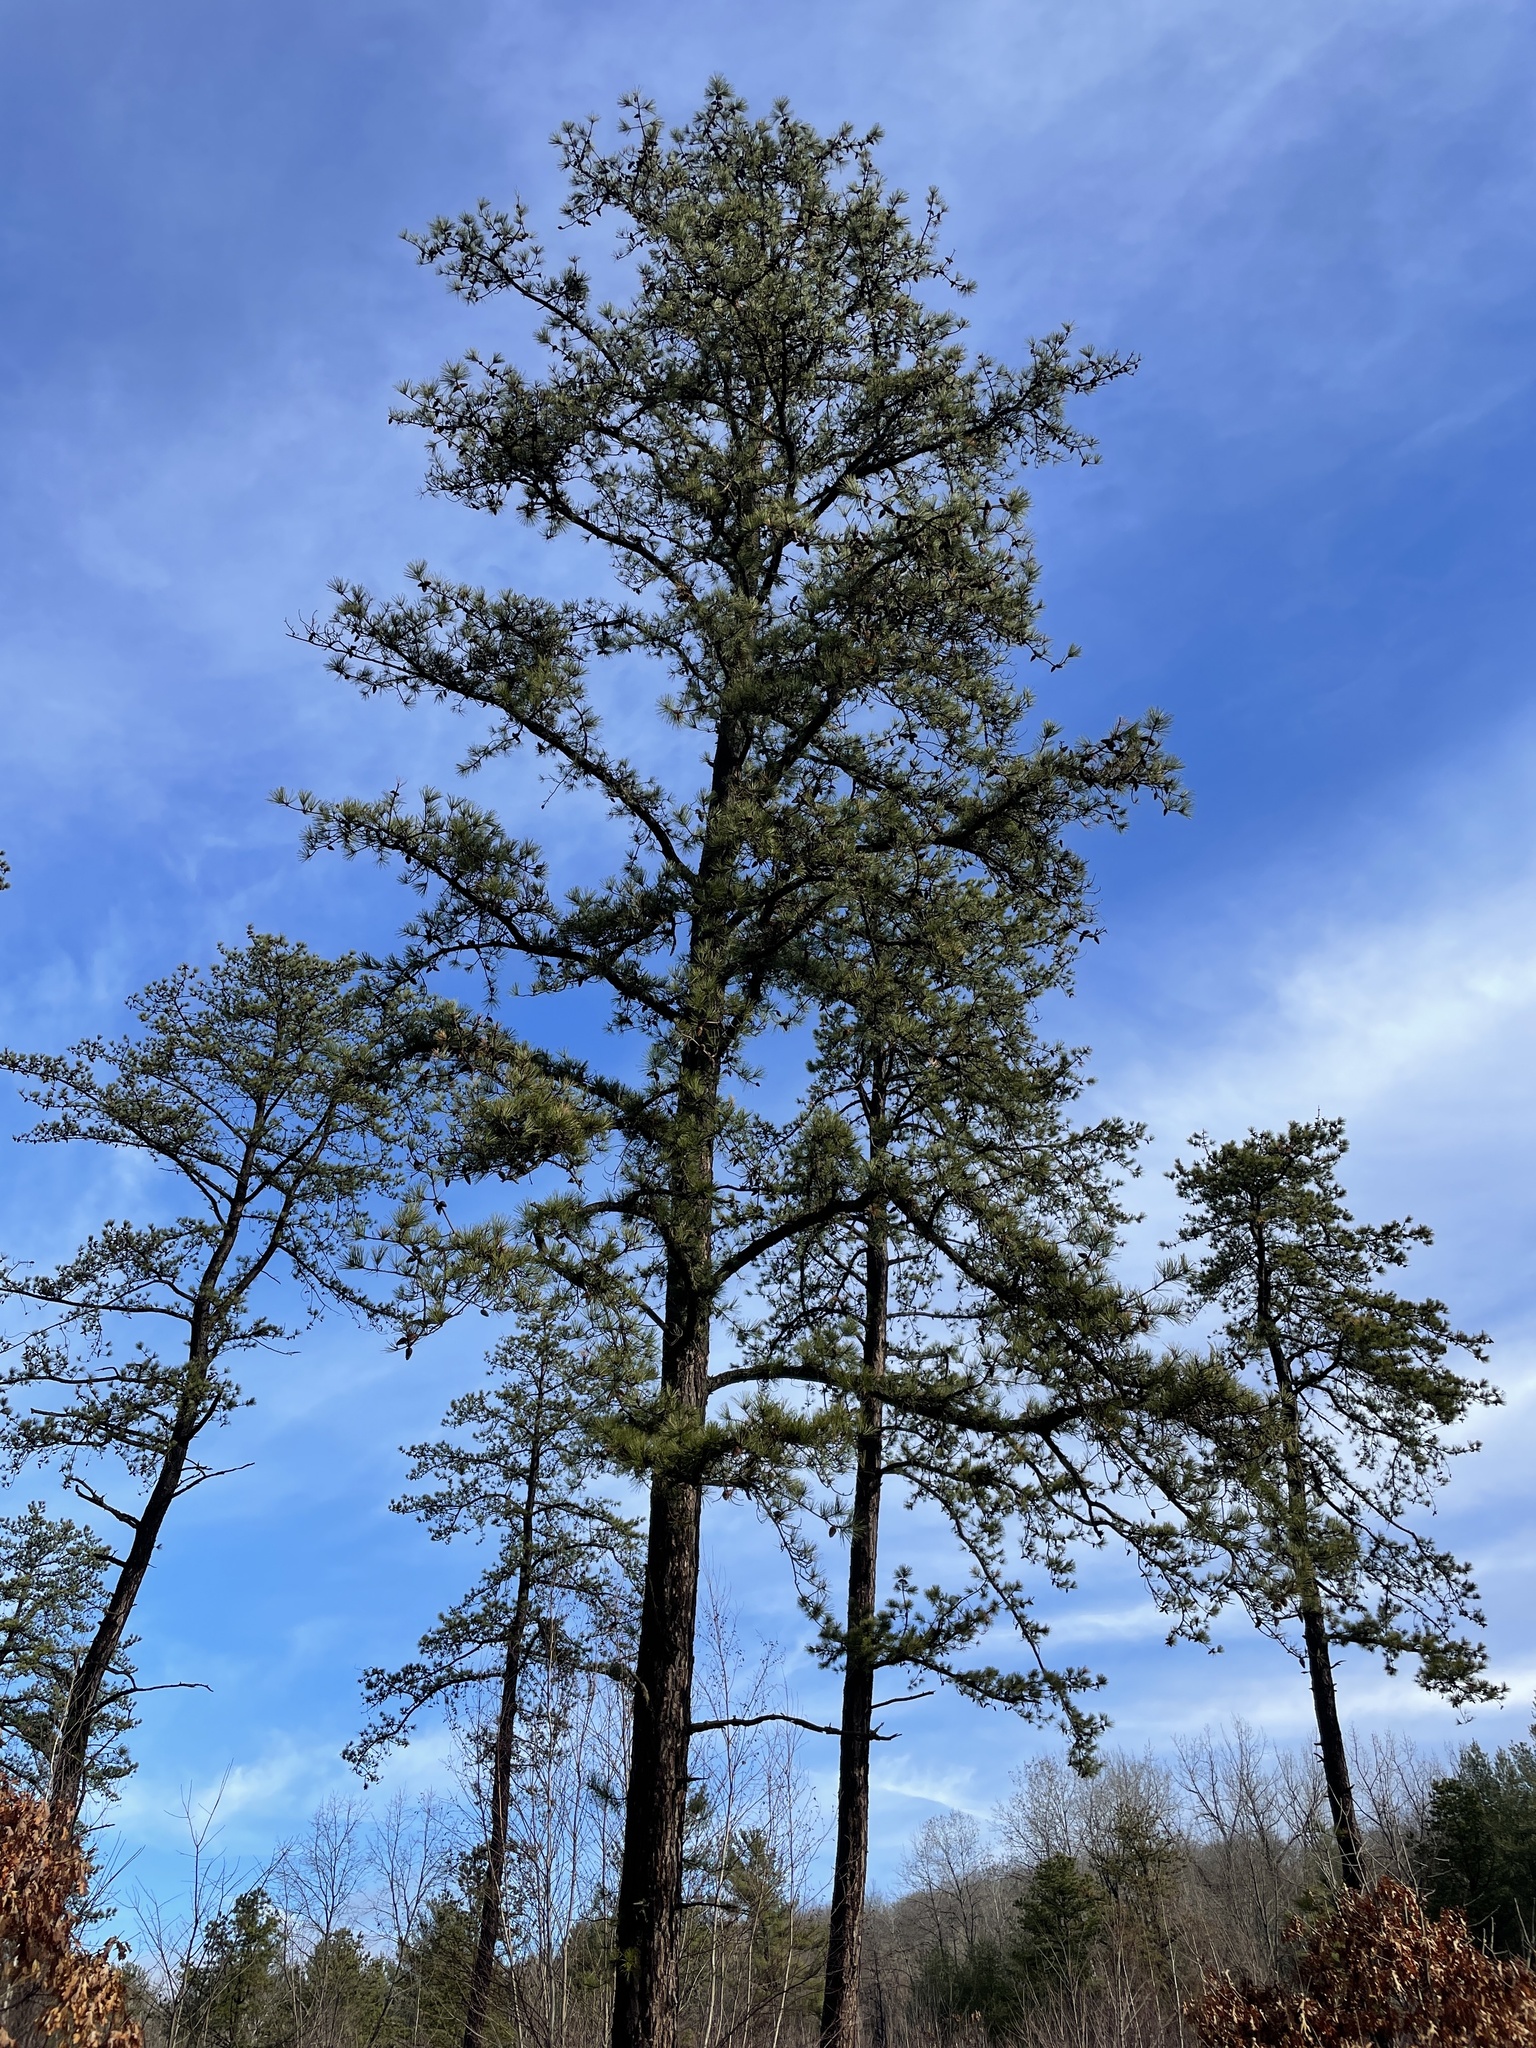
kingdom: Plantae
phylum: Tracheophyta
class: Pinopsida
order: Pinales
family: Pinaceae
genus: Pinus
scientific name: Pinus rigida
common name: Pitch pine
